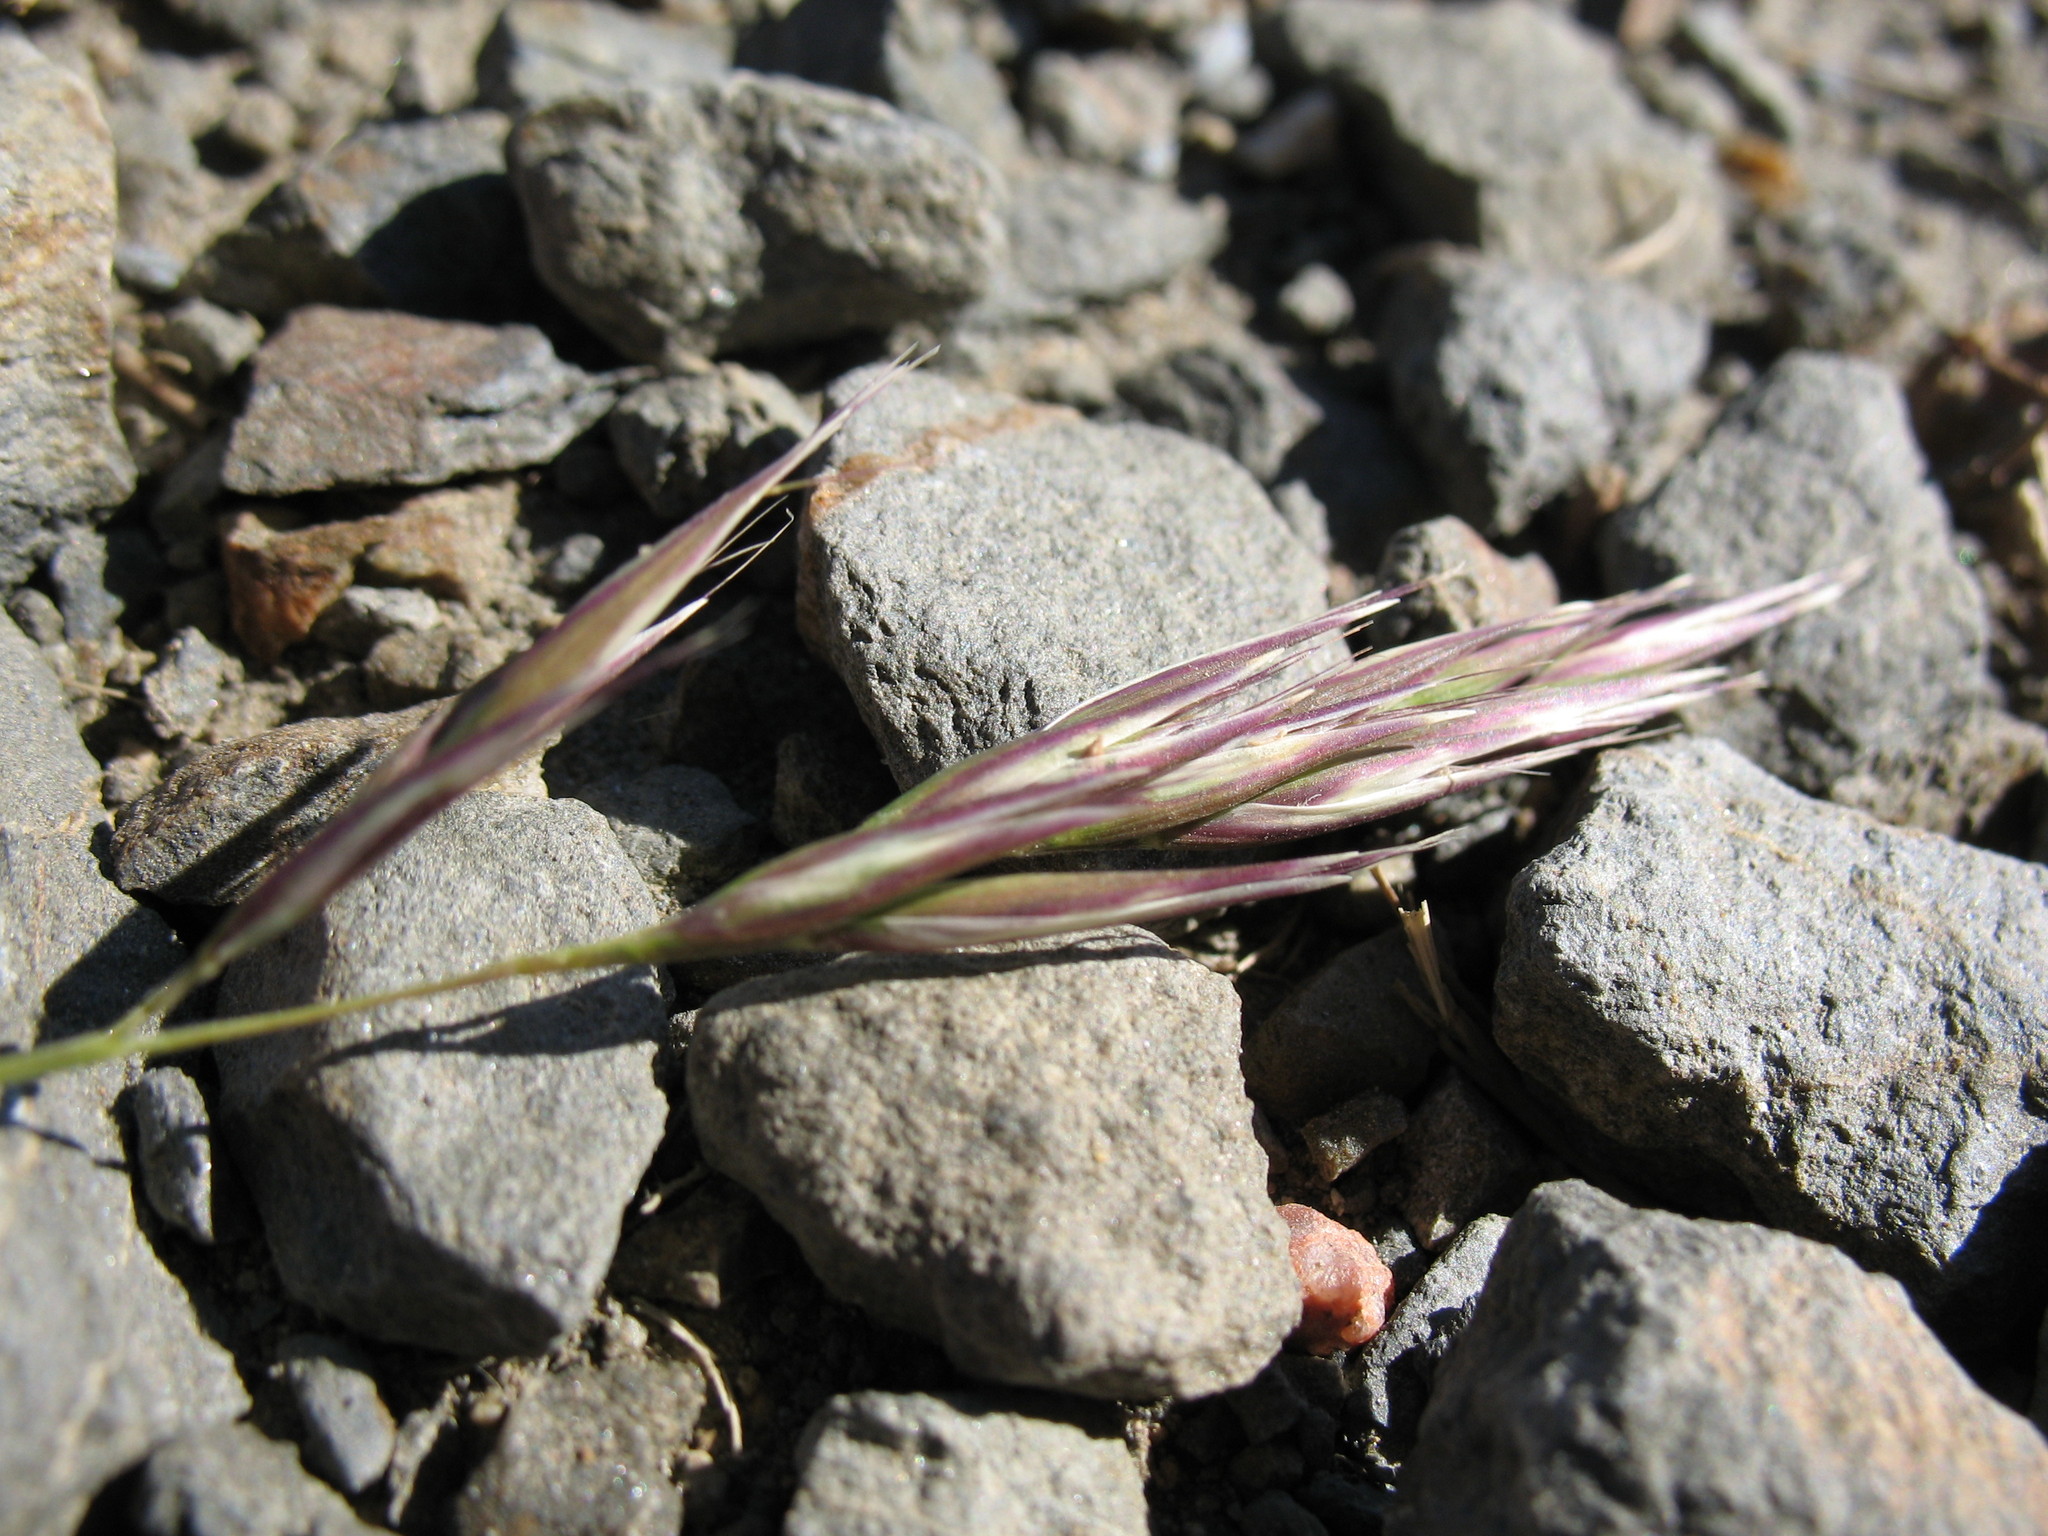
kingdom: Plantae
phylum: Tracheophyta
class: Liliopsida
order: Poales
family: Poaceae
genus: Rytidosperma
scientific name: Rytidosperma penicillatum
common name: Hairy wallaby grass
